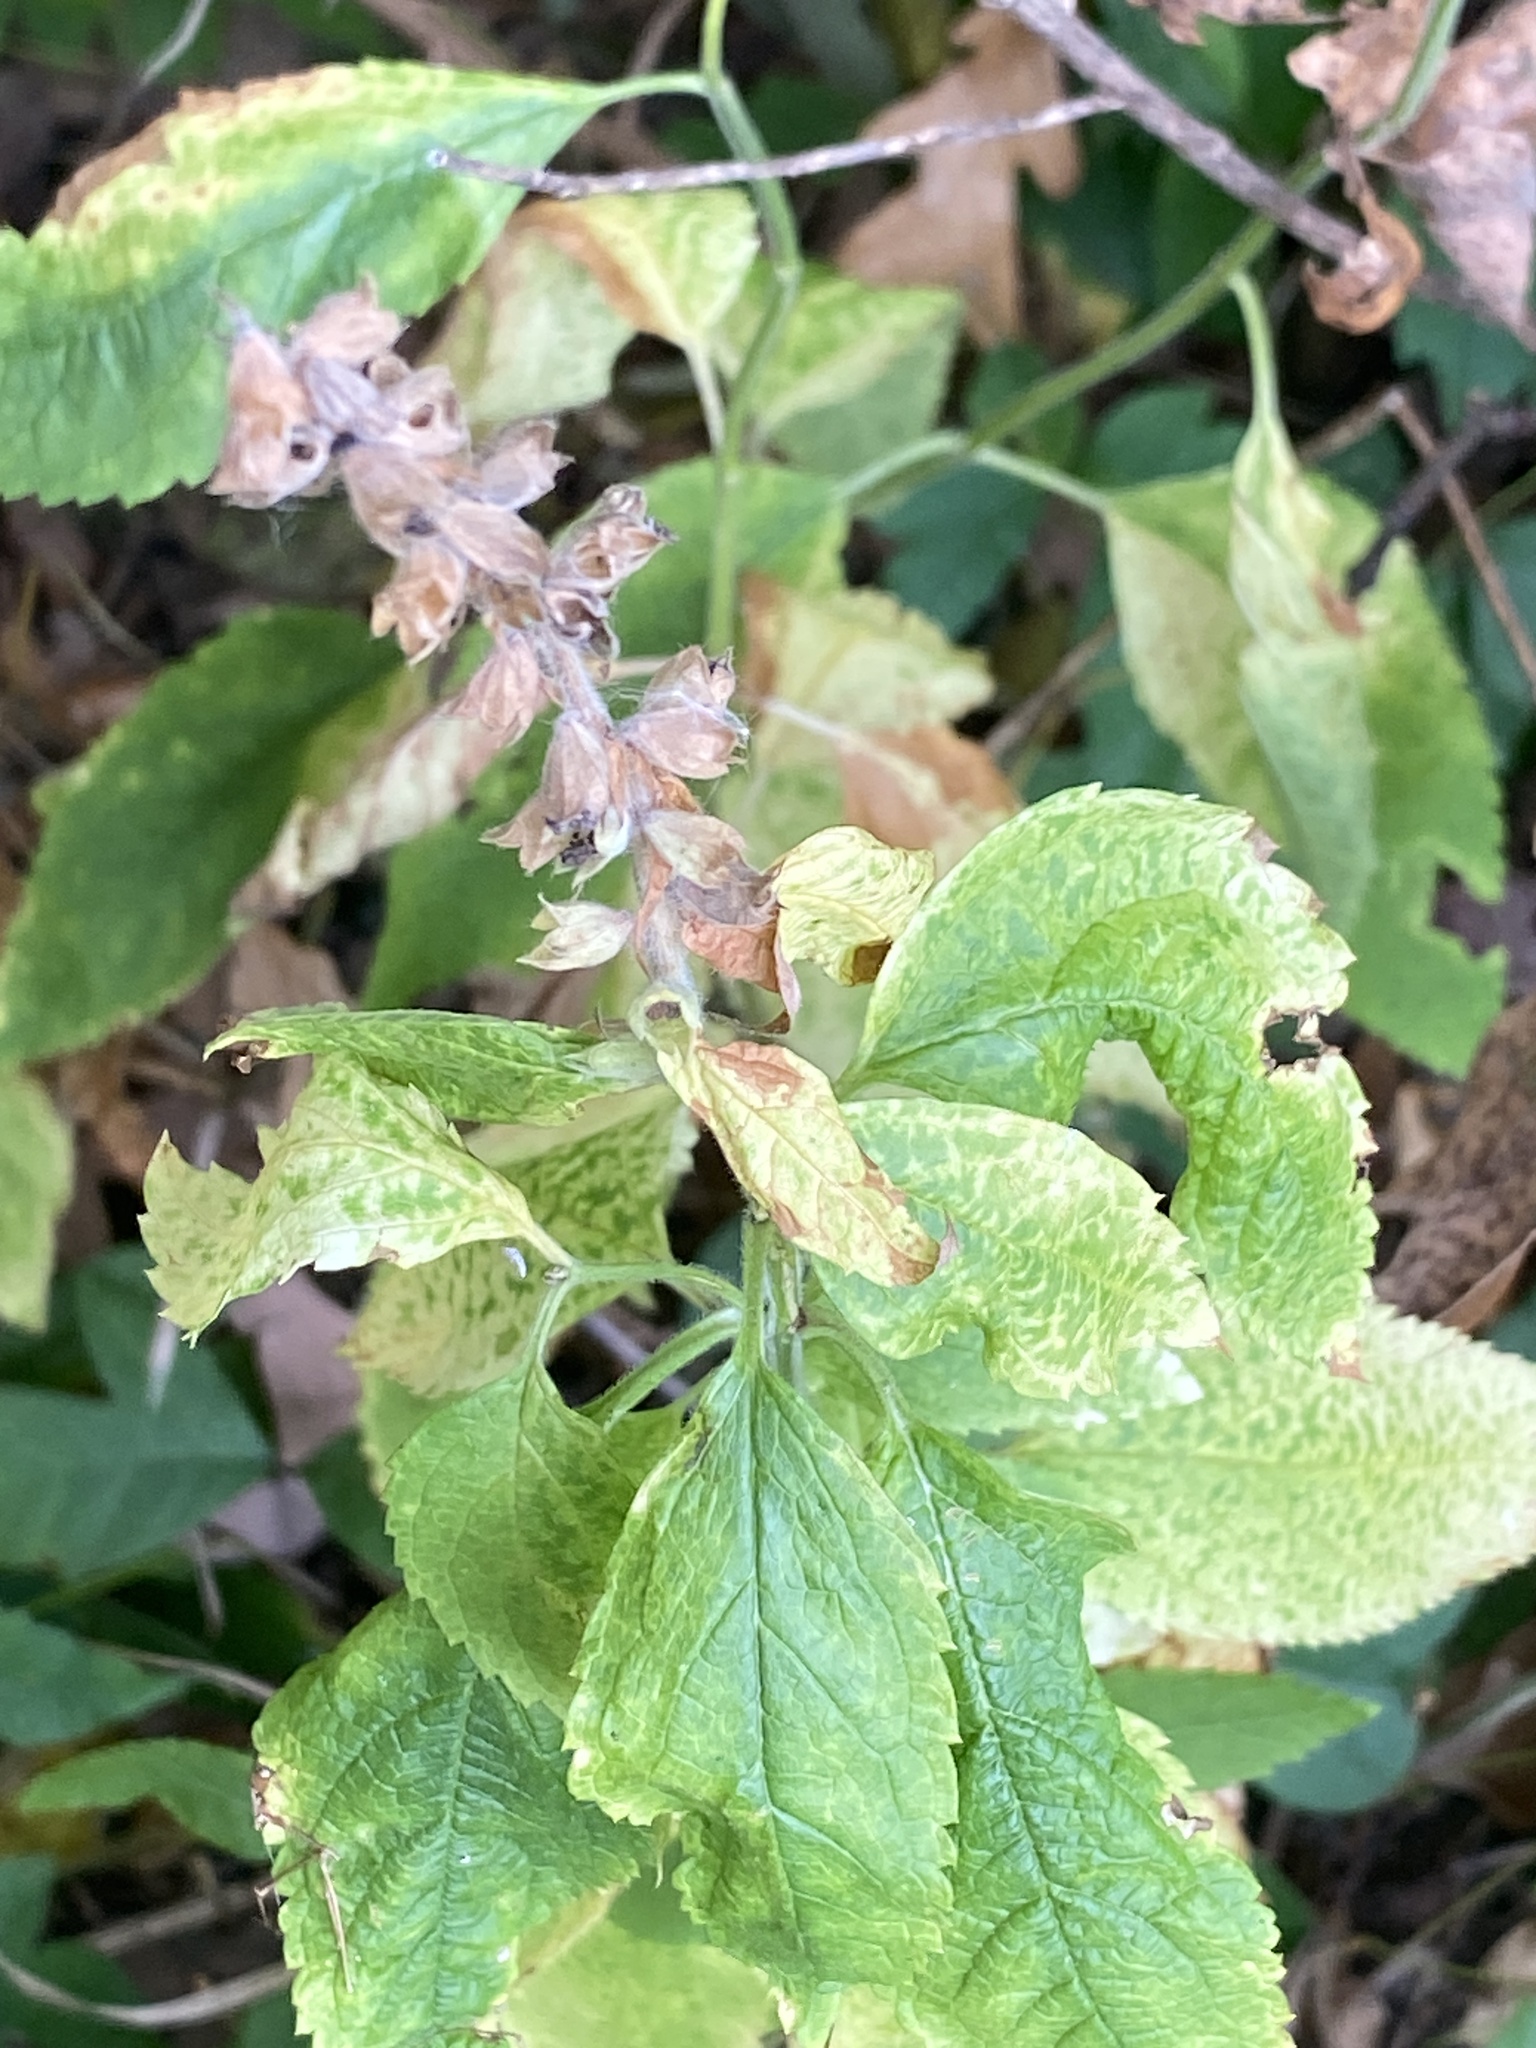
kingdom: Plantae
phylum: Tracheophyta
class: Magnoliopsida
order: Lamiales
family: Lamiaceae
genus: Teucrium
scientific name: Teucrium canadense
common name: American germander
